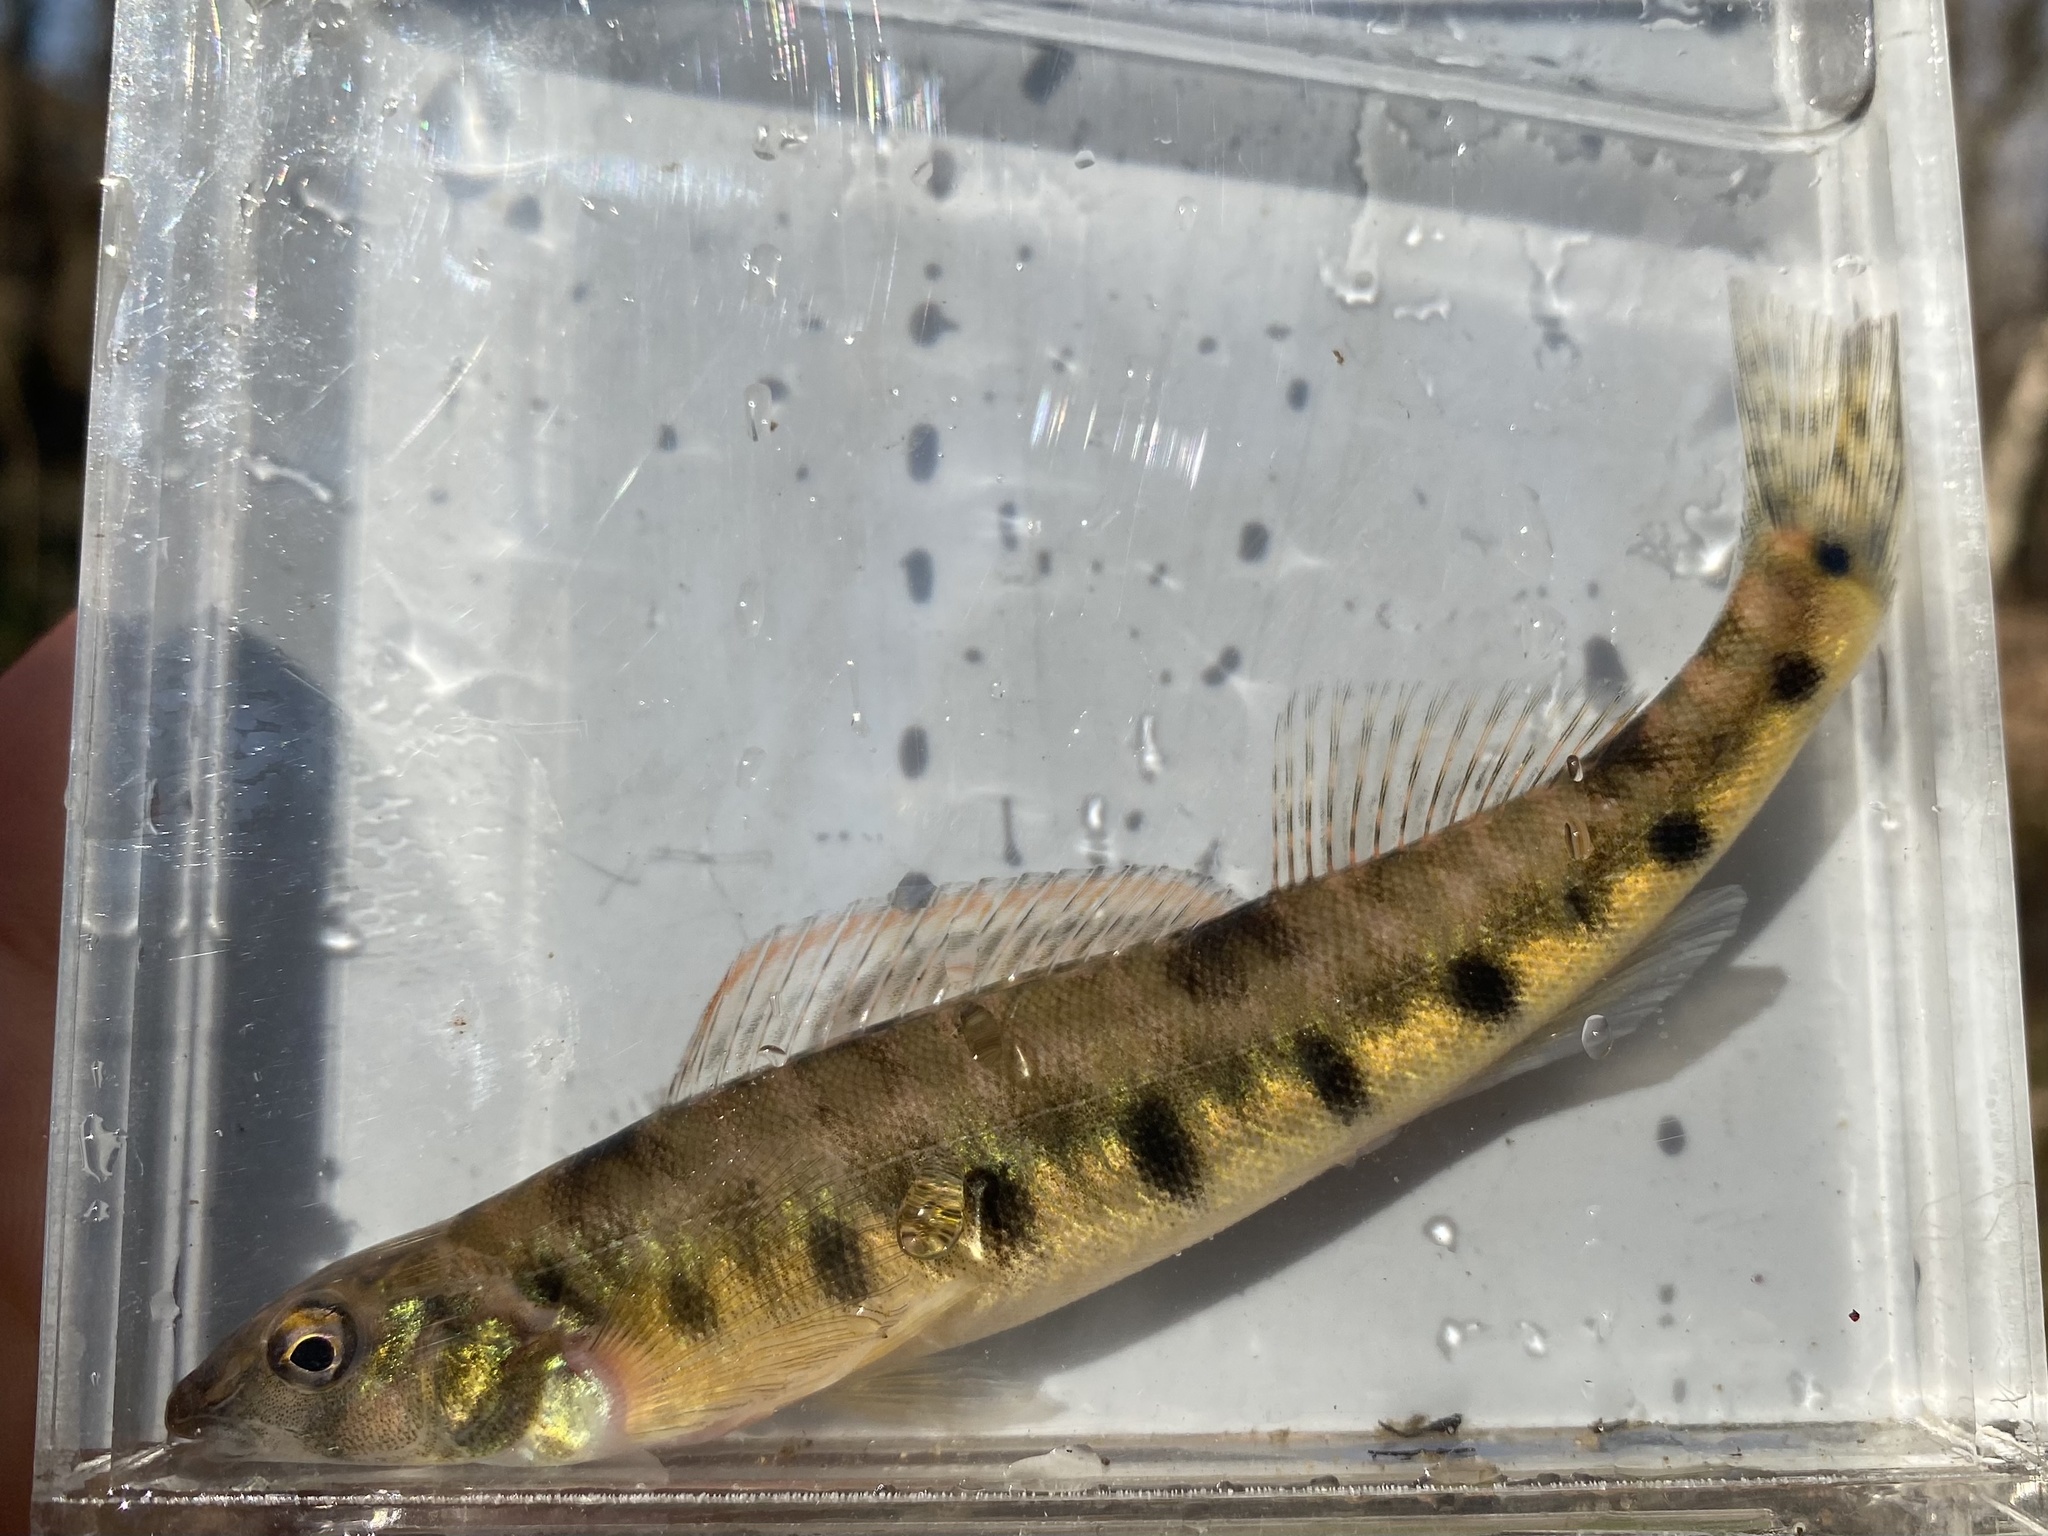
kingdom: Animalia
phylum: Chordata
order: Perciformes
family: Percidae
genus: Percina
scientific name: Percina kathae
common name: Mobile logperch
